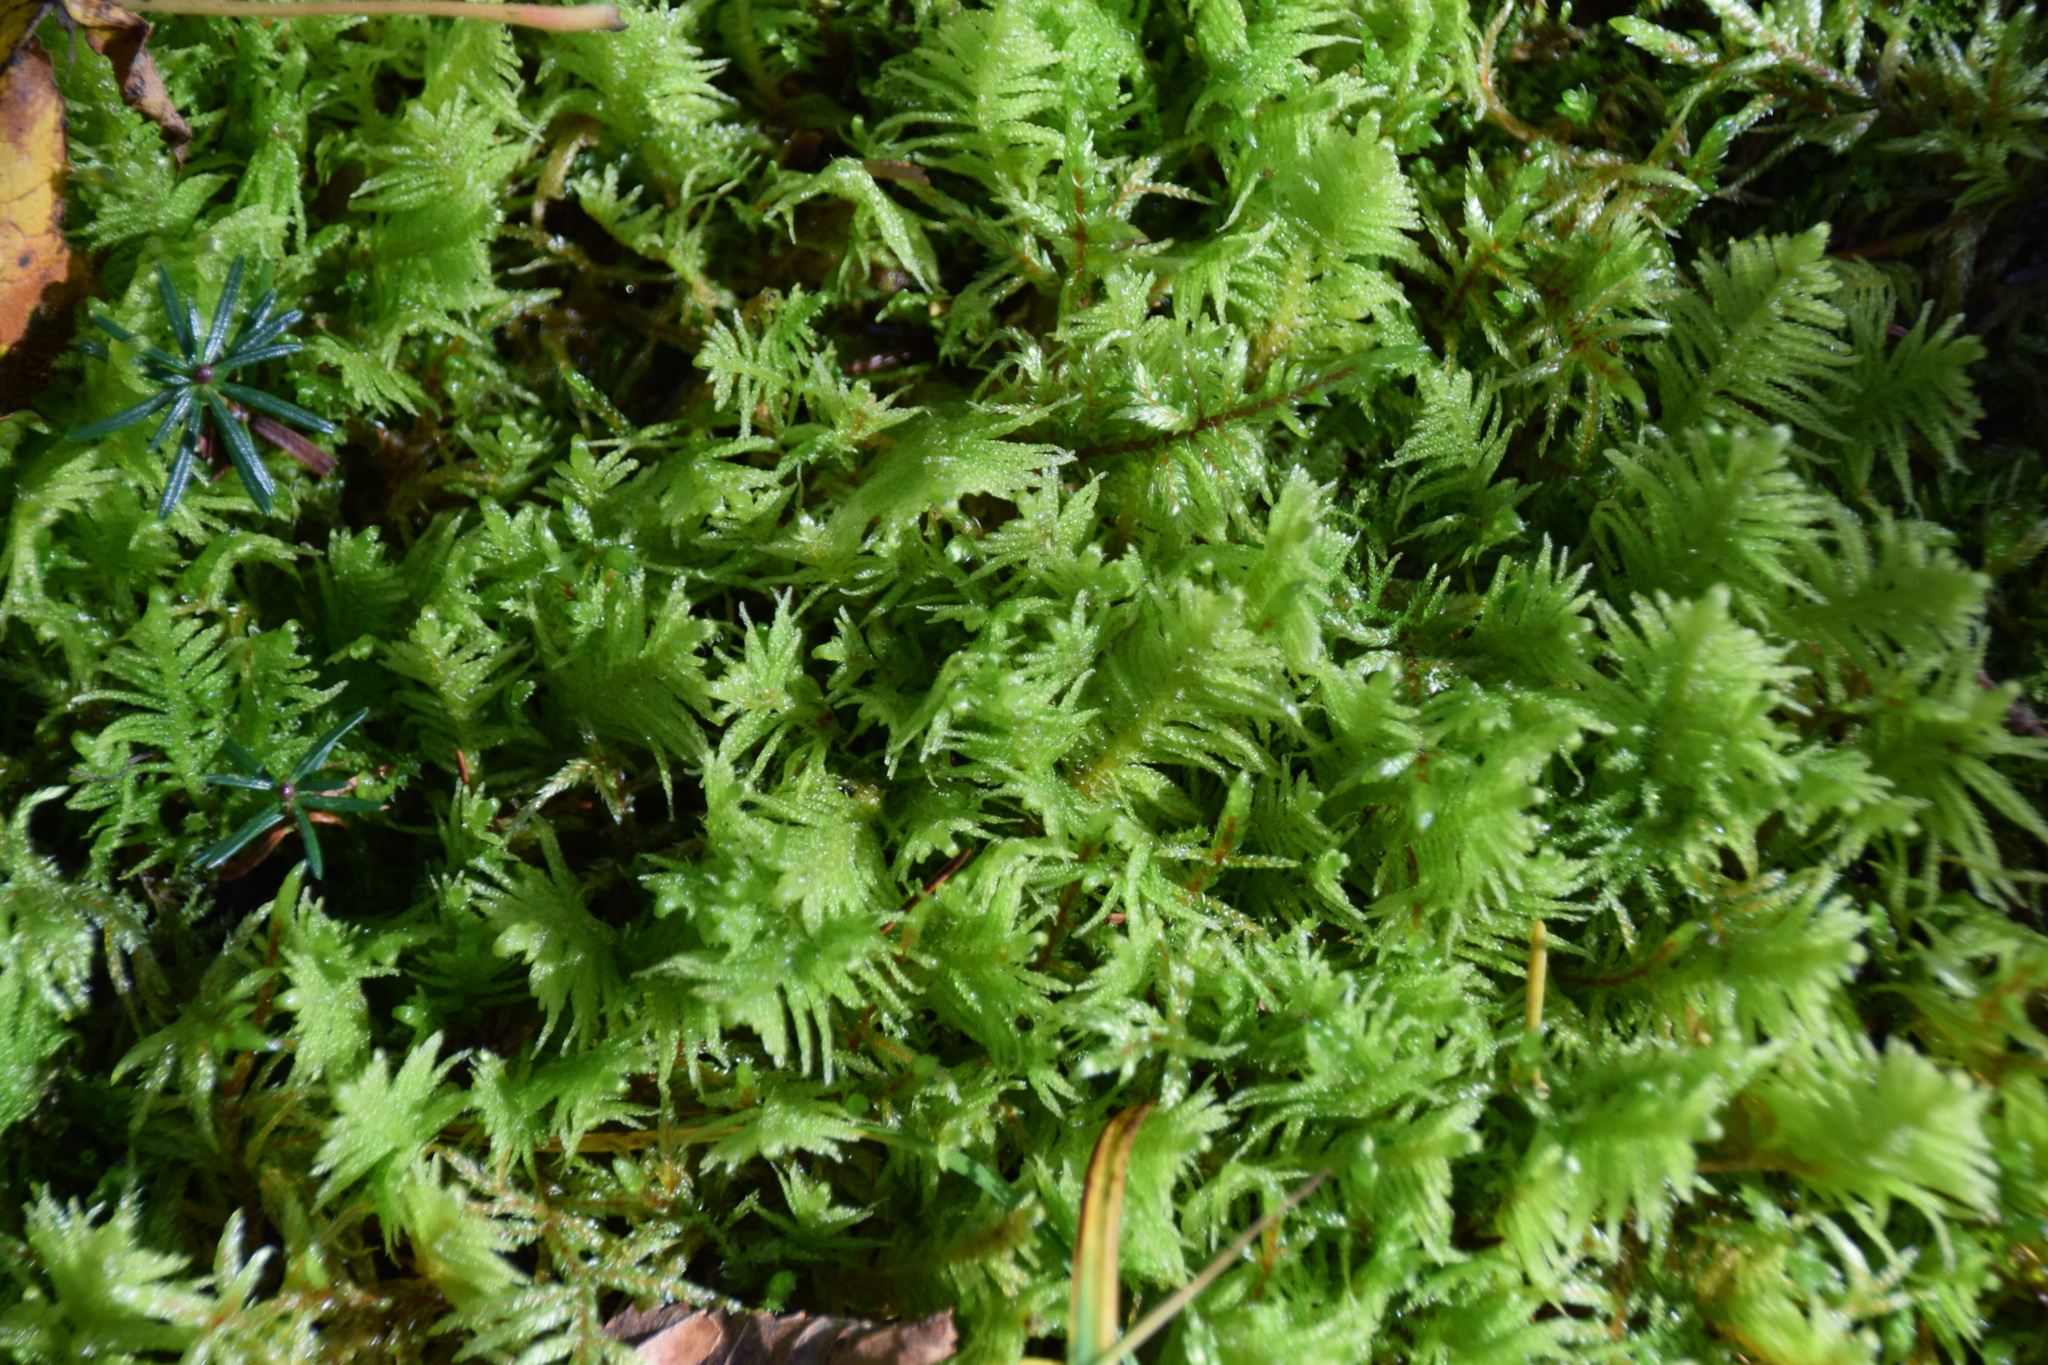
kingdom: Plantae
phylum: Bryophyta
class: Bryopsida
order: Hypnales
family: Pylaisiaceae
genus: Ptilium
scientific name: Ptilium crista-castrensis
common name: Knight's plume moss
